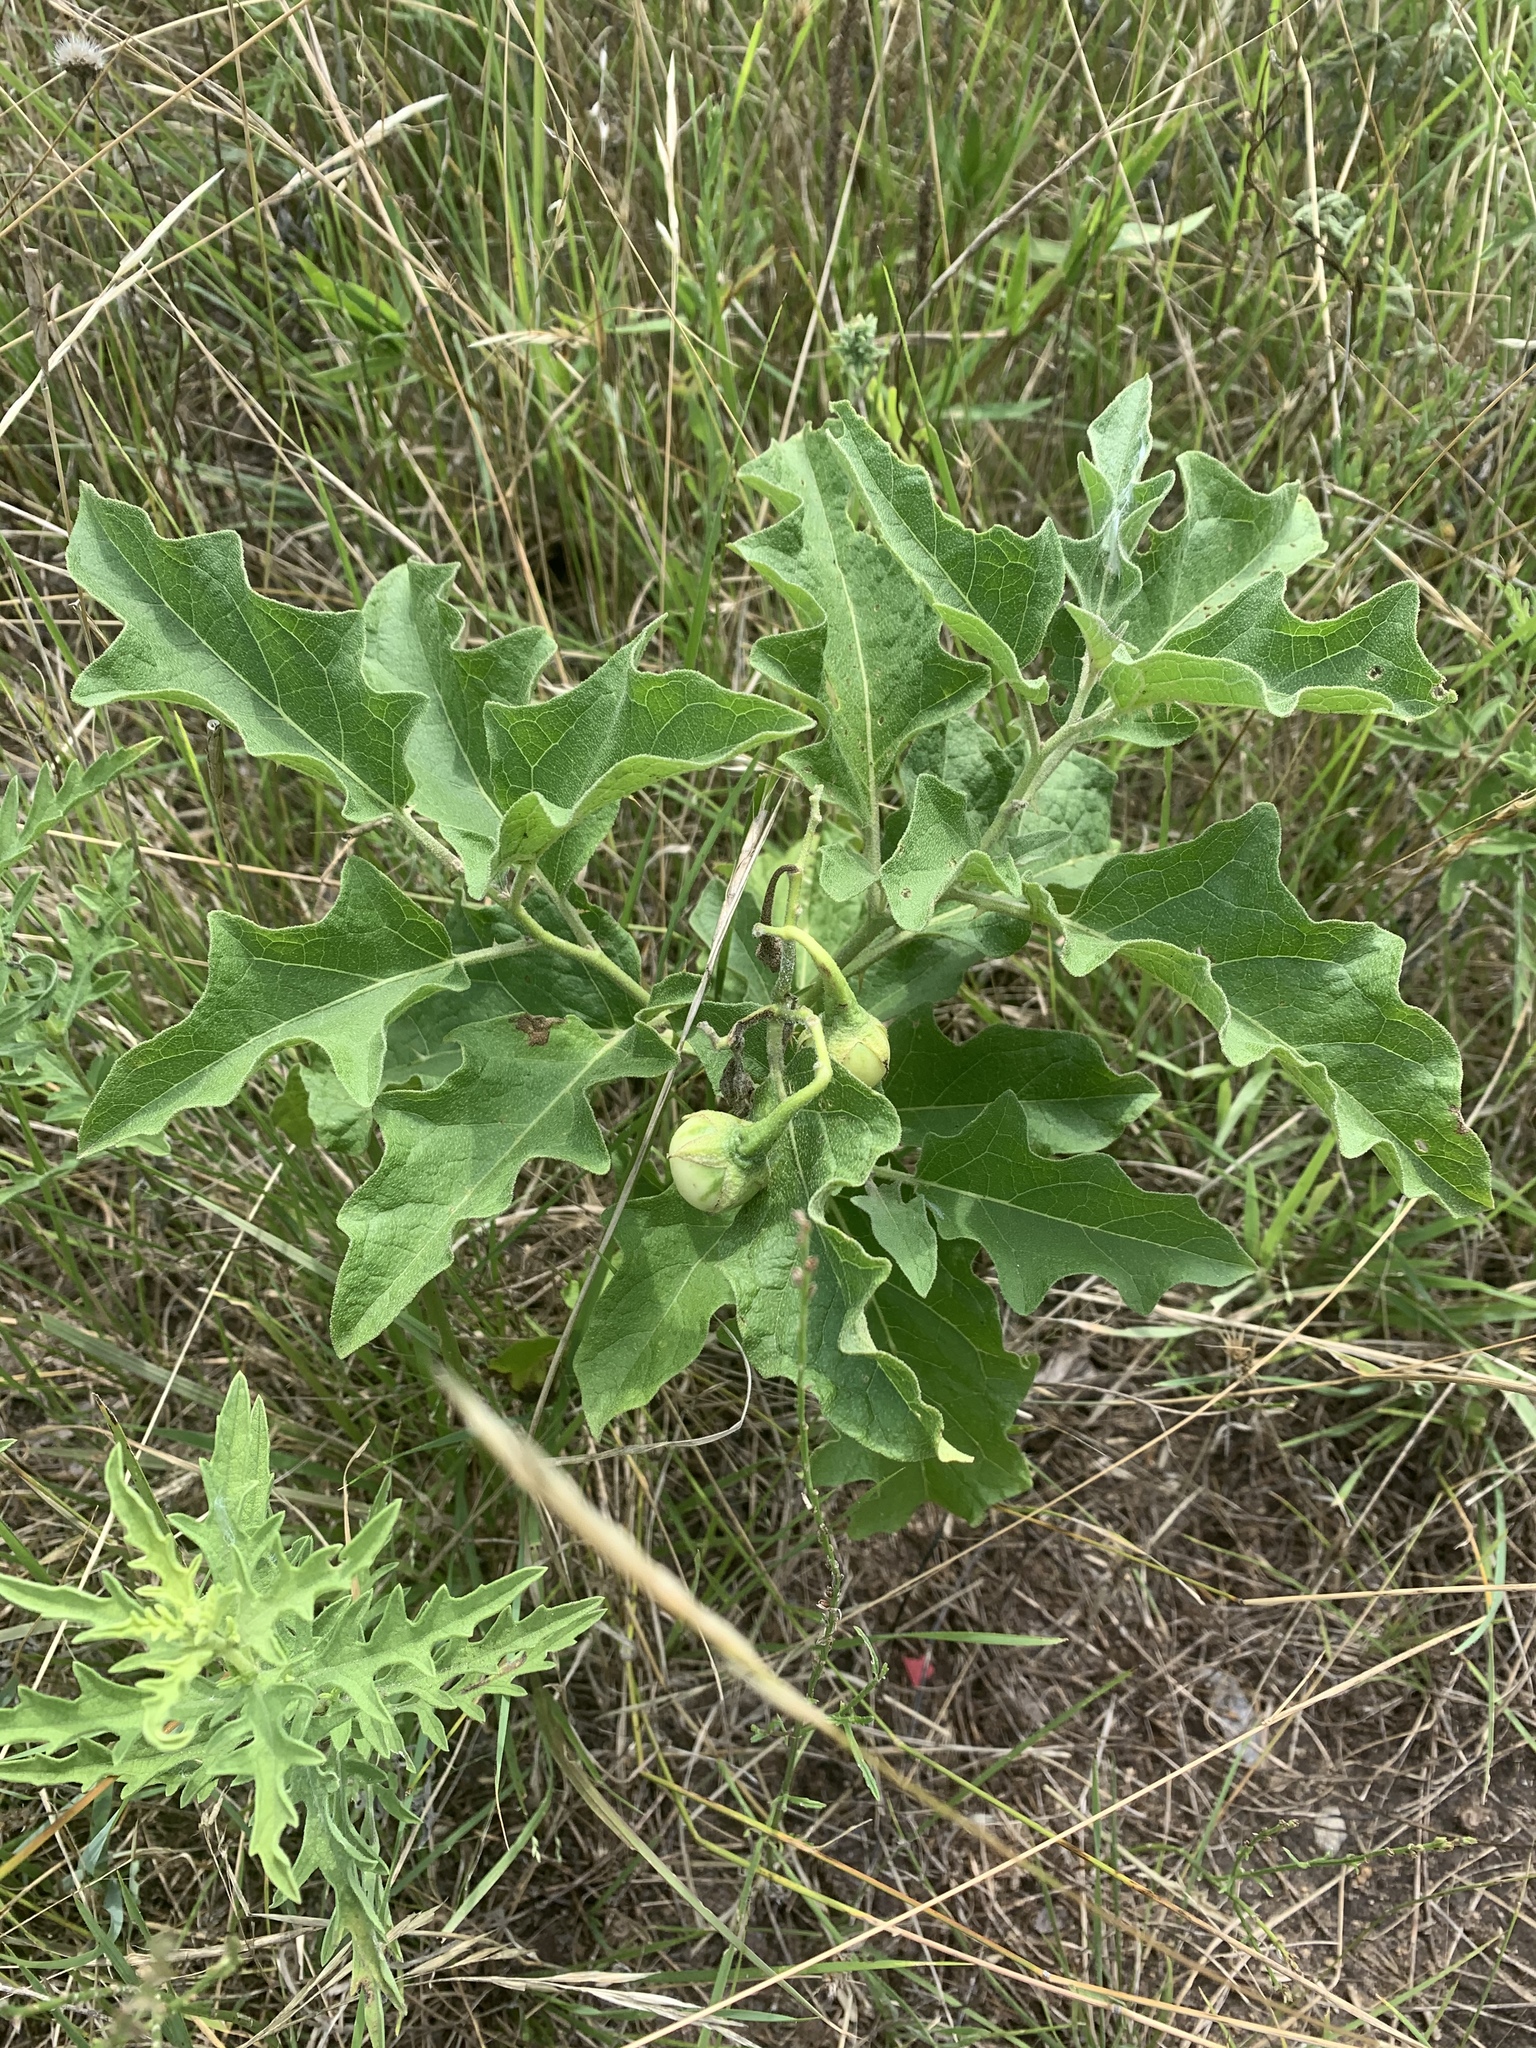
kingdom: Plantae
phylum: Tracheophyta
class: Magnoliopsida
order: Solanales
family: Solanaceae
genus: Solanum
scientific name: Solanum dimidiatum
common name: Carolina horse-nettle
